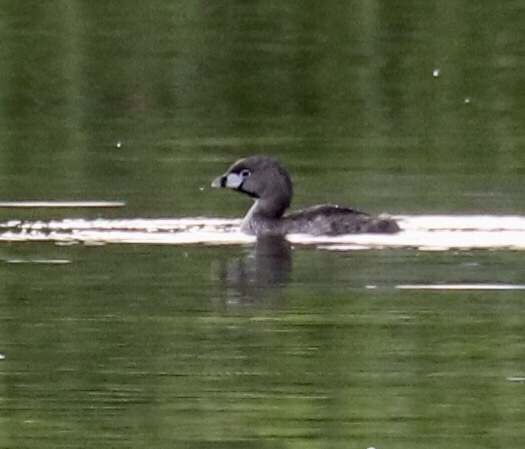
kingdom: Animalia
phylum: Chordata
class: Aves
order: Podicipediformes
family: Podicipedidae
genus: Podilymbus
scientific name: Podilymbus podiceps
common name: Pied-billed grebe
